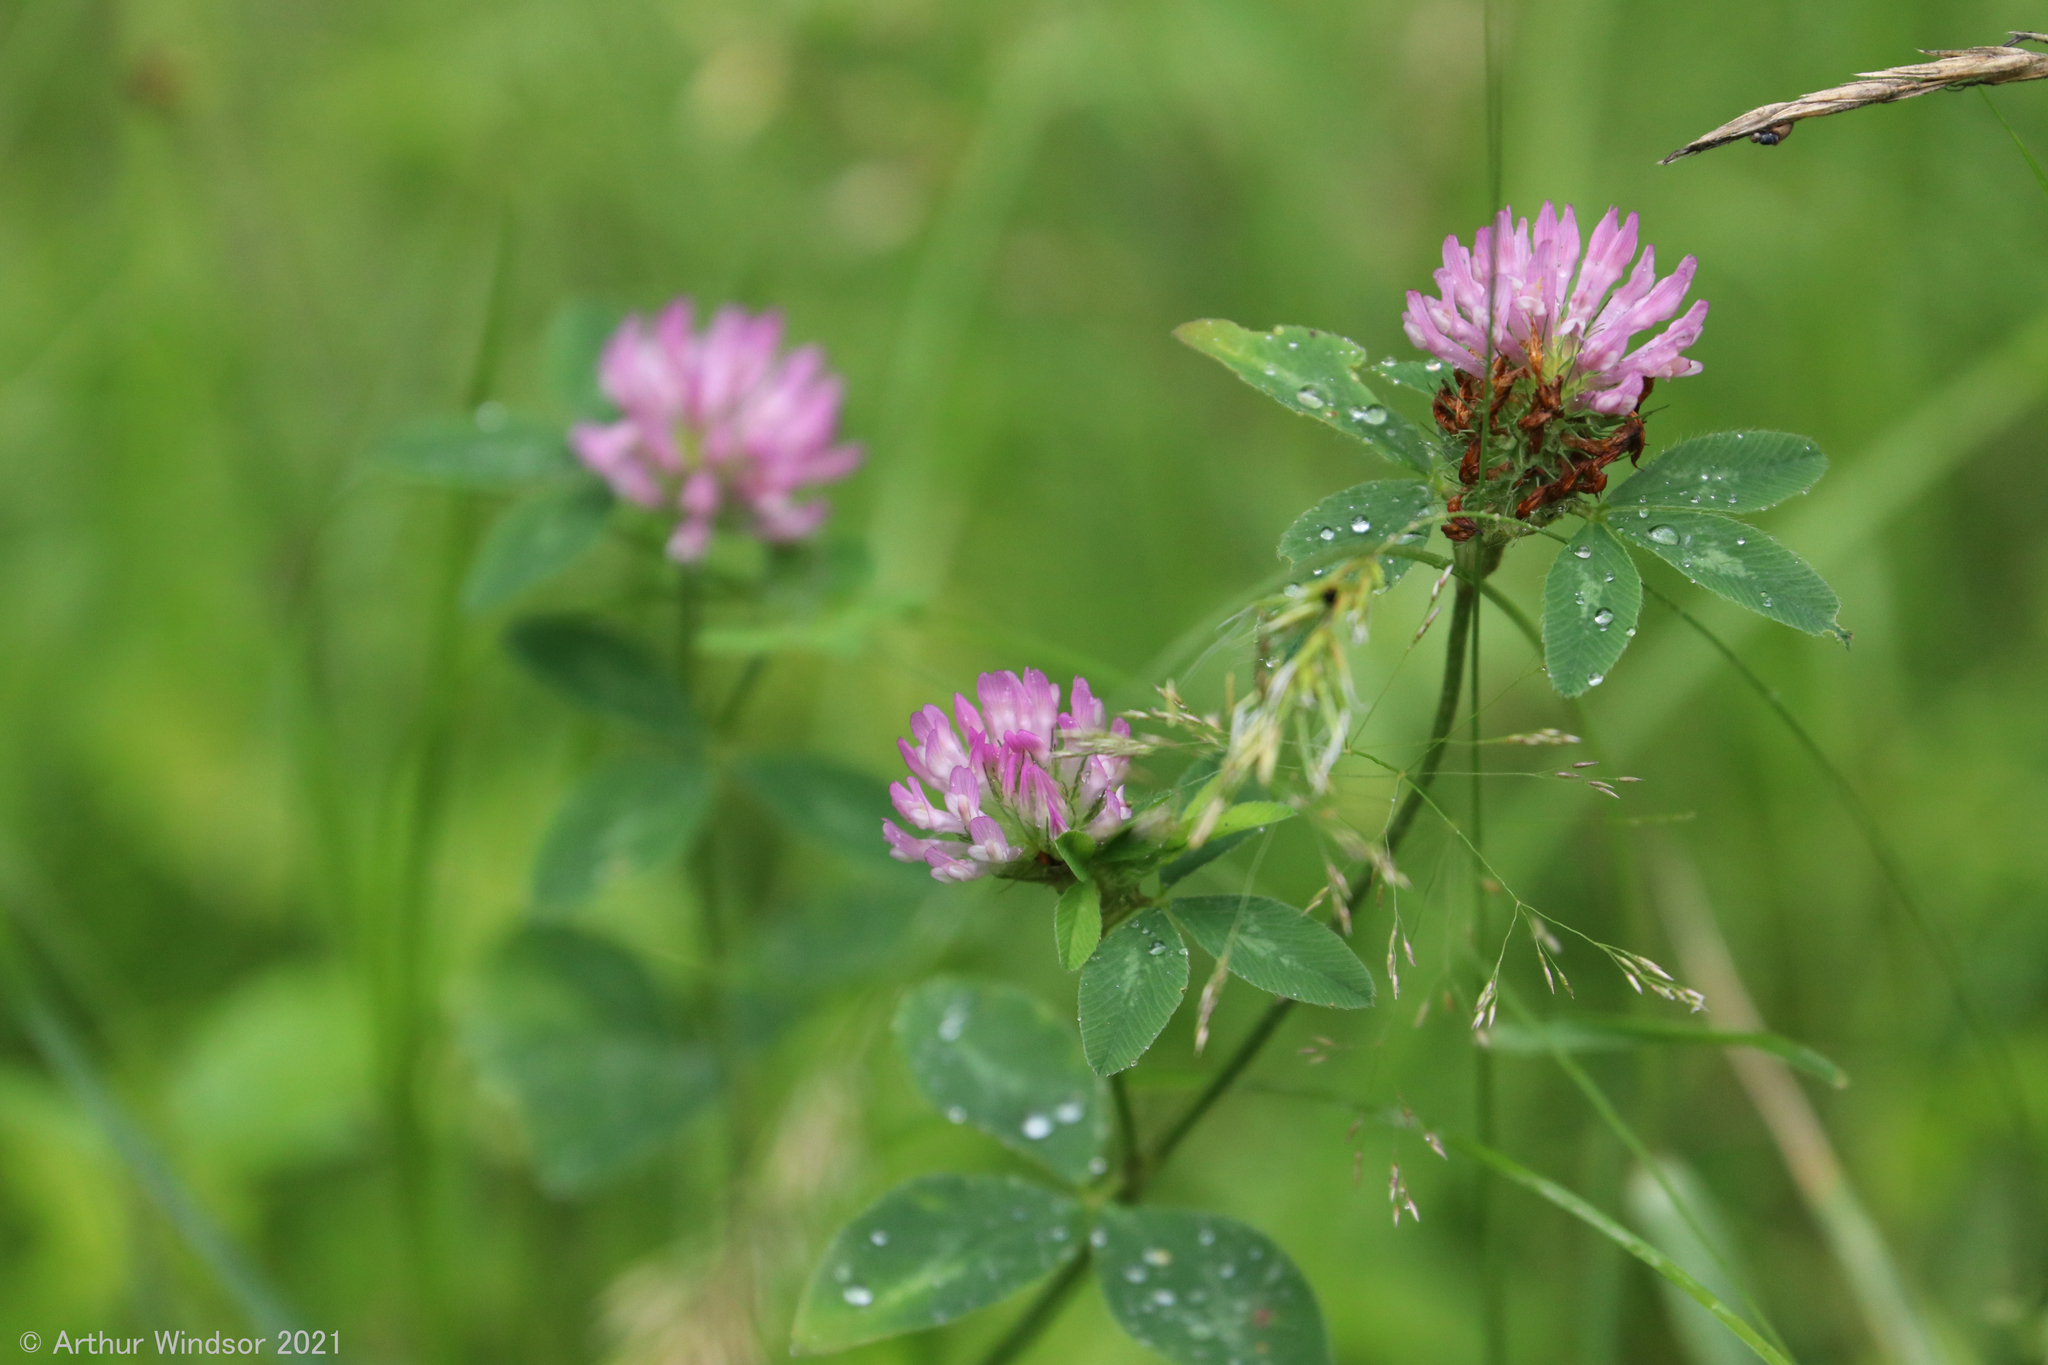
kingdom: Plantae
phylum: Tracheophyta
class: Magnoliopsida
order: Fabales
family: Fabaceae
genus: Trifolium
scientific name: Trifolium pratense
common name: Red clover
